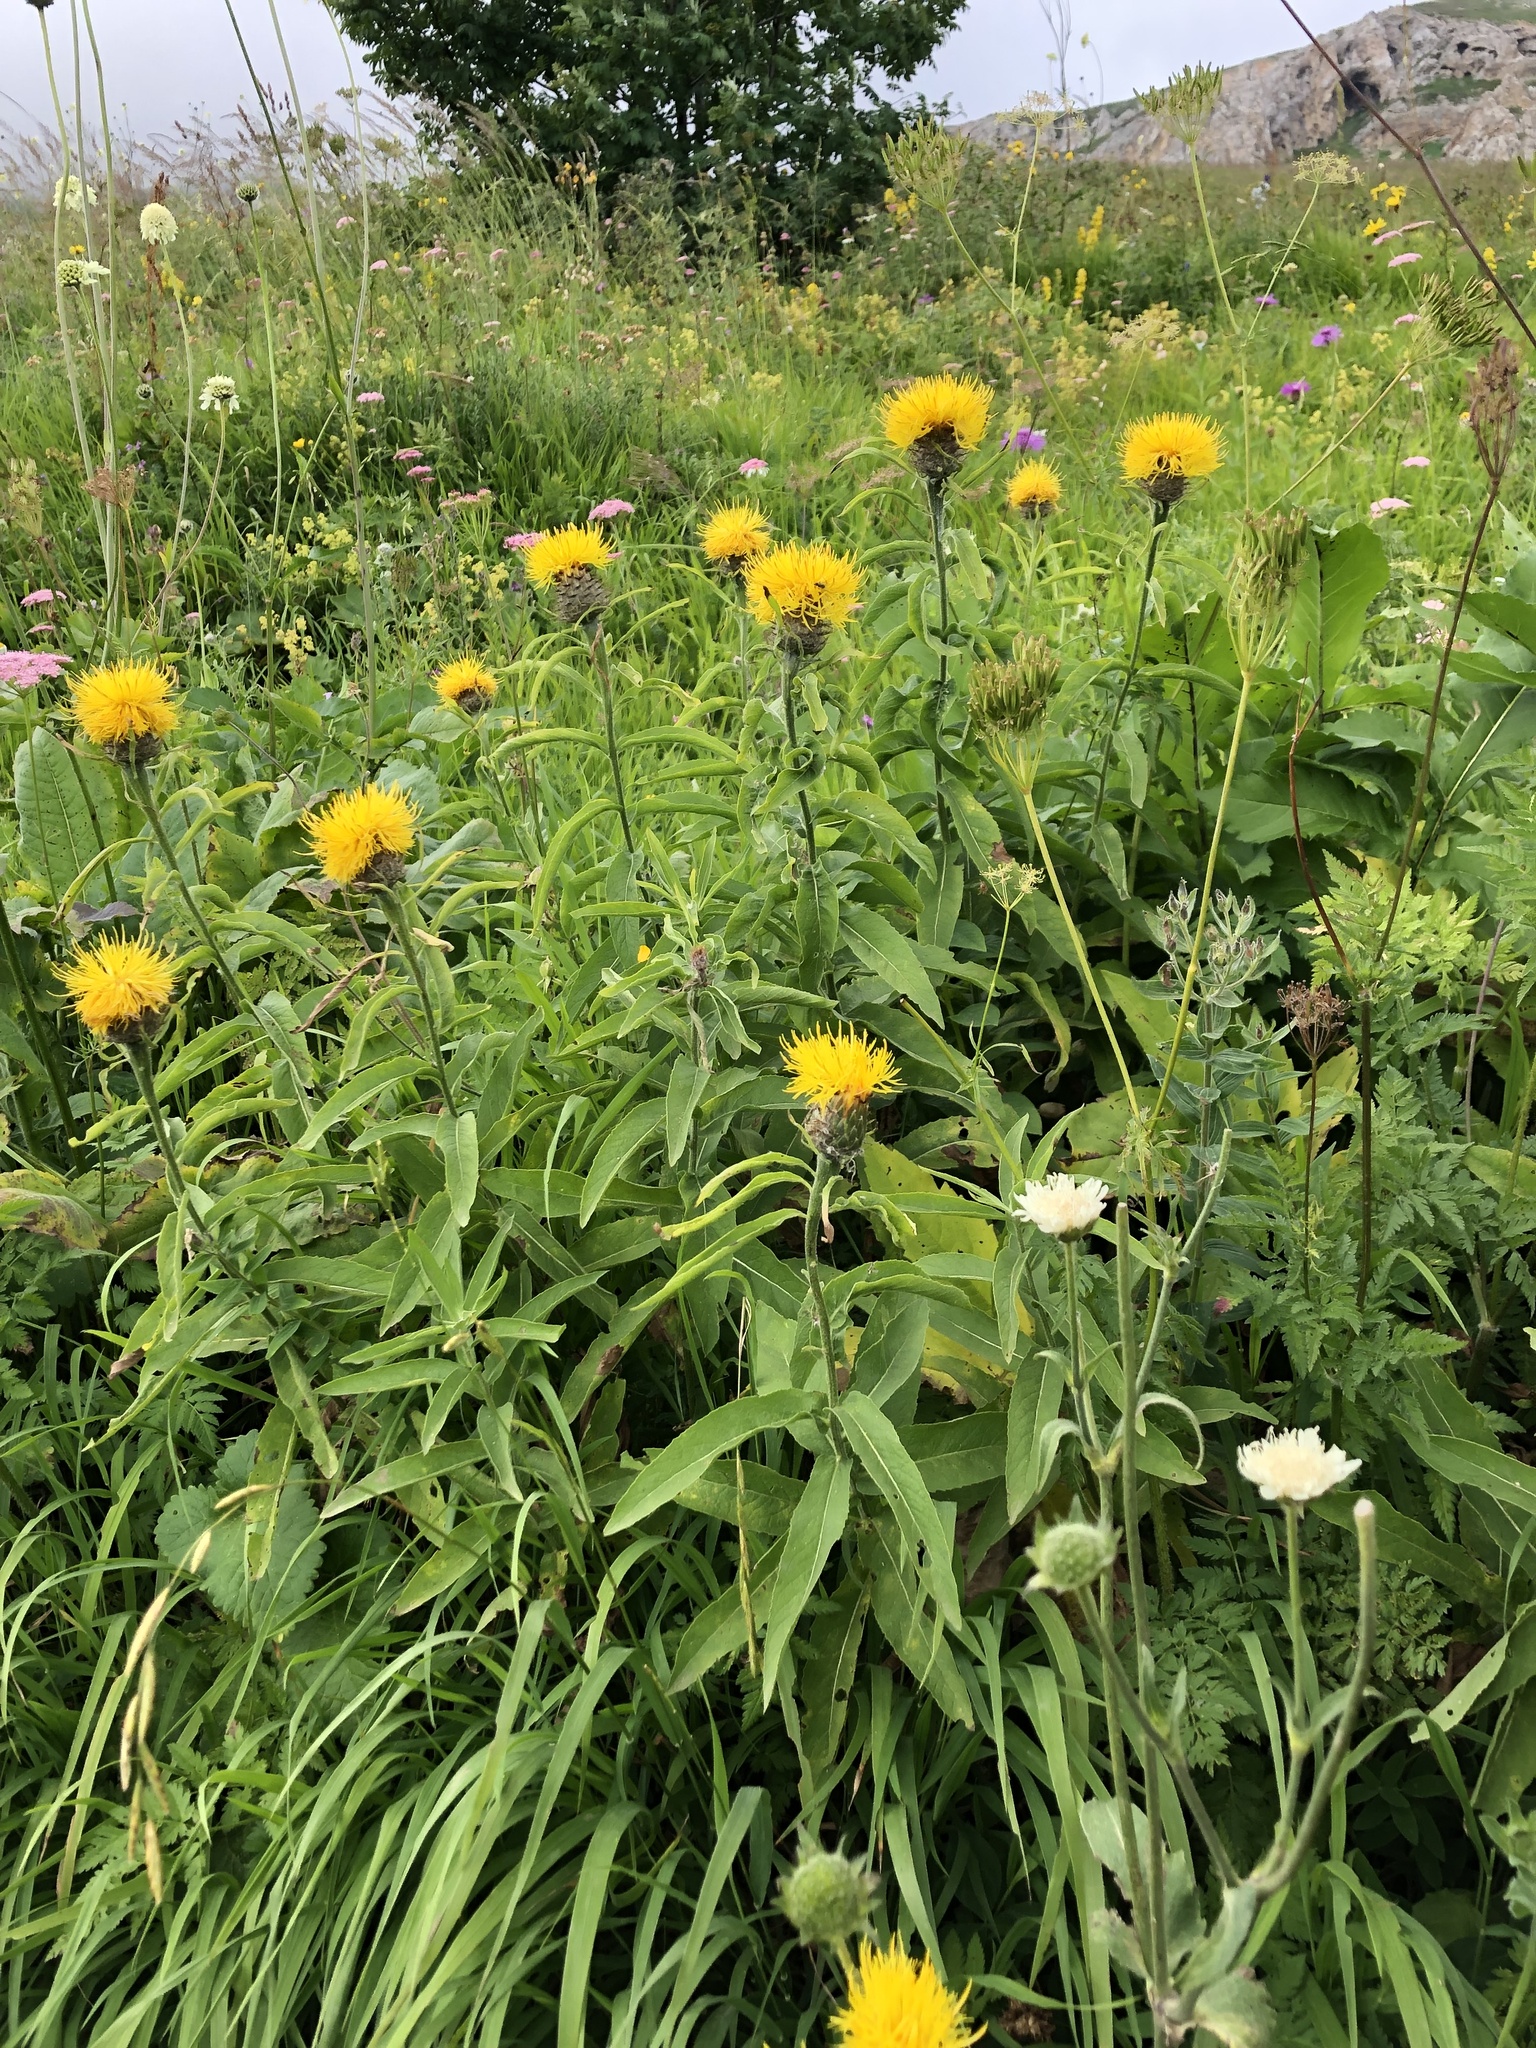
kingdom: Plantae
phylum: Tracheophyta
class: Magnoliopsida
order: Asterales
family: Asteraceae
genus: Centaurea
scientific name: Centaurea macrocephala
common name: Big-head knapweed
